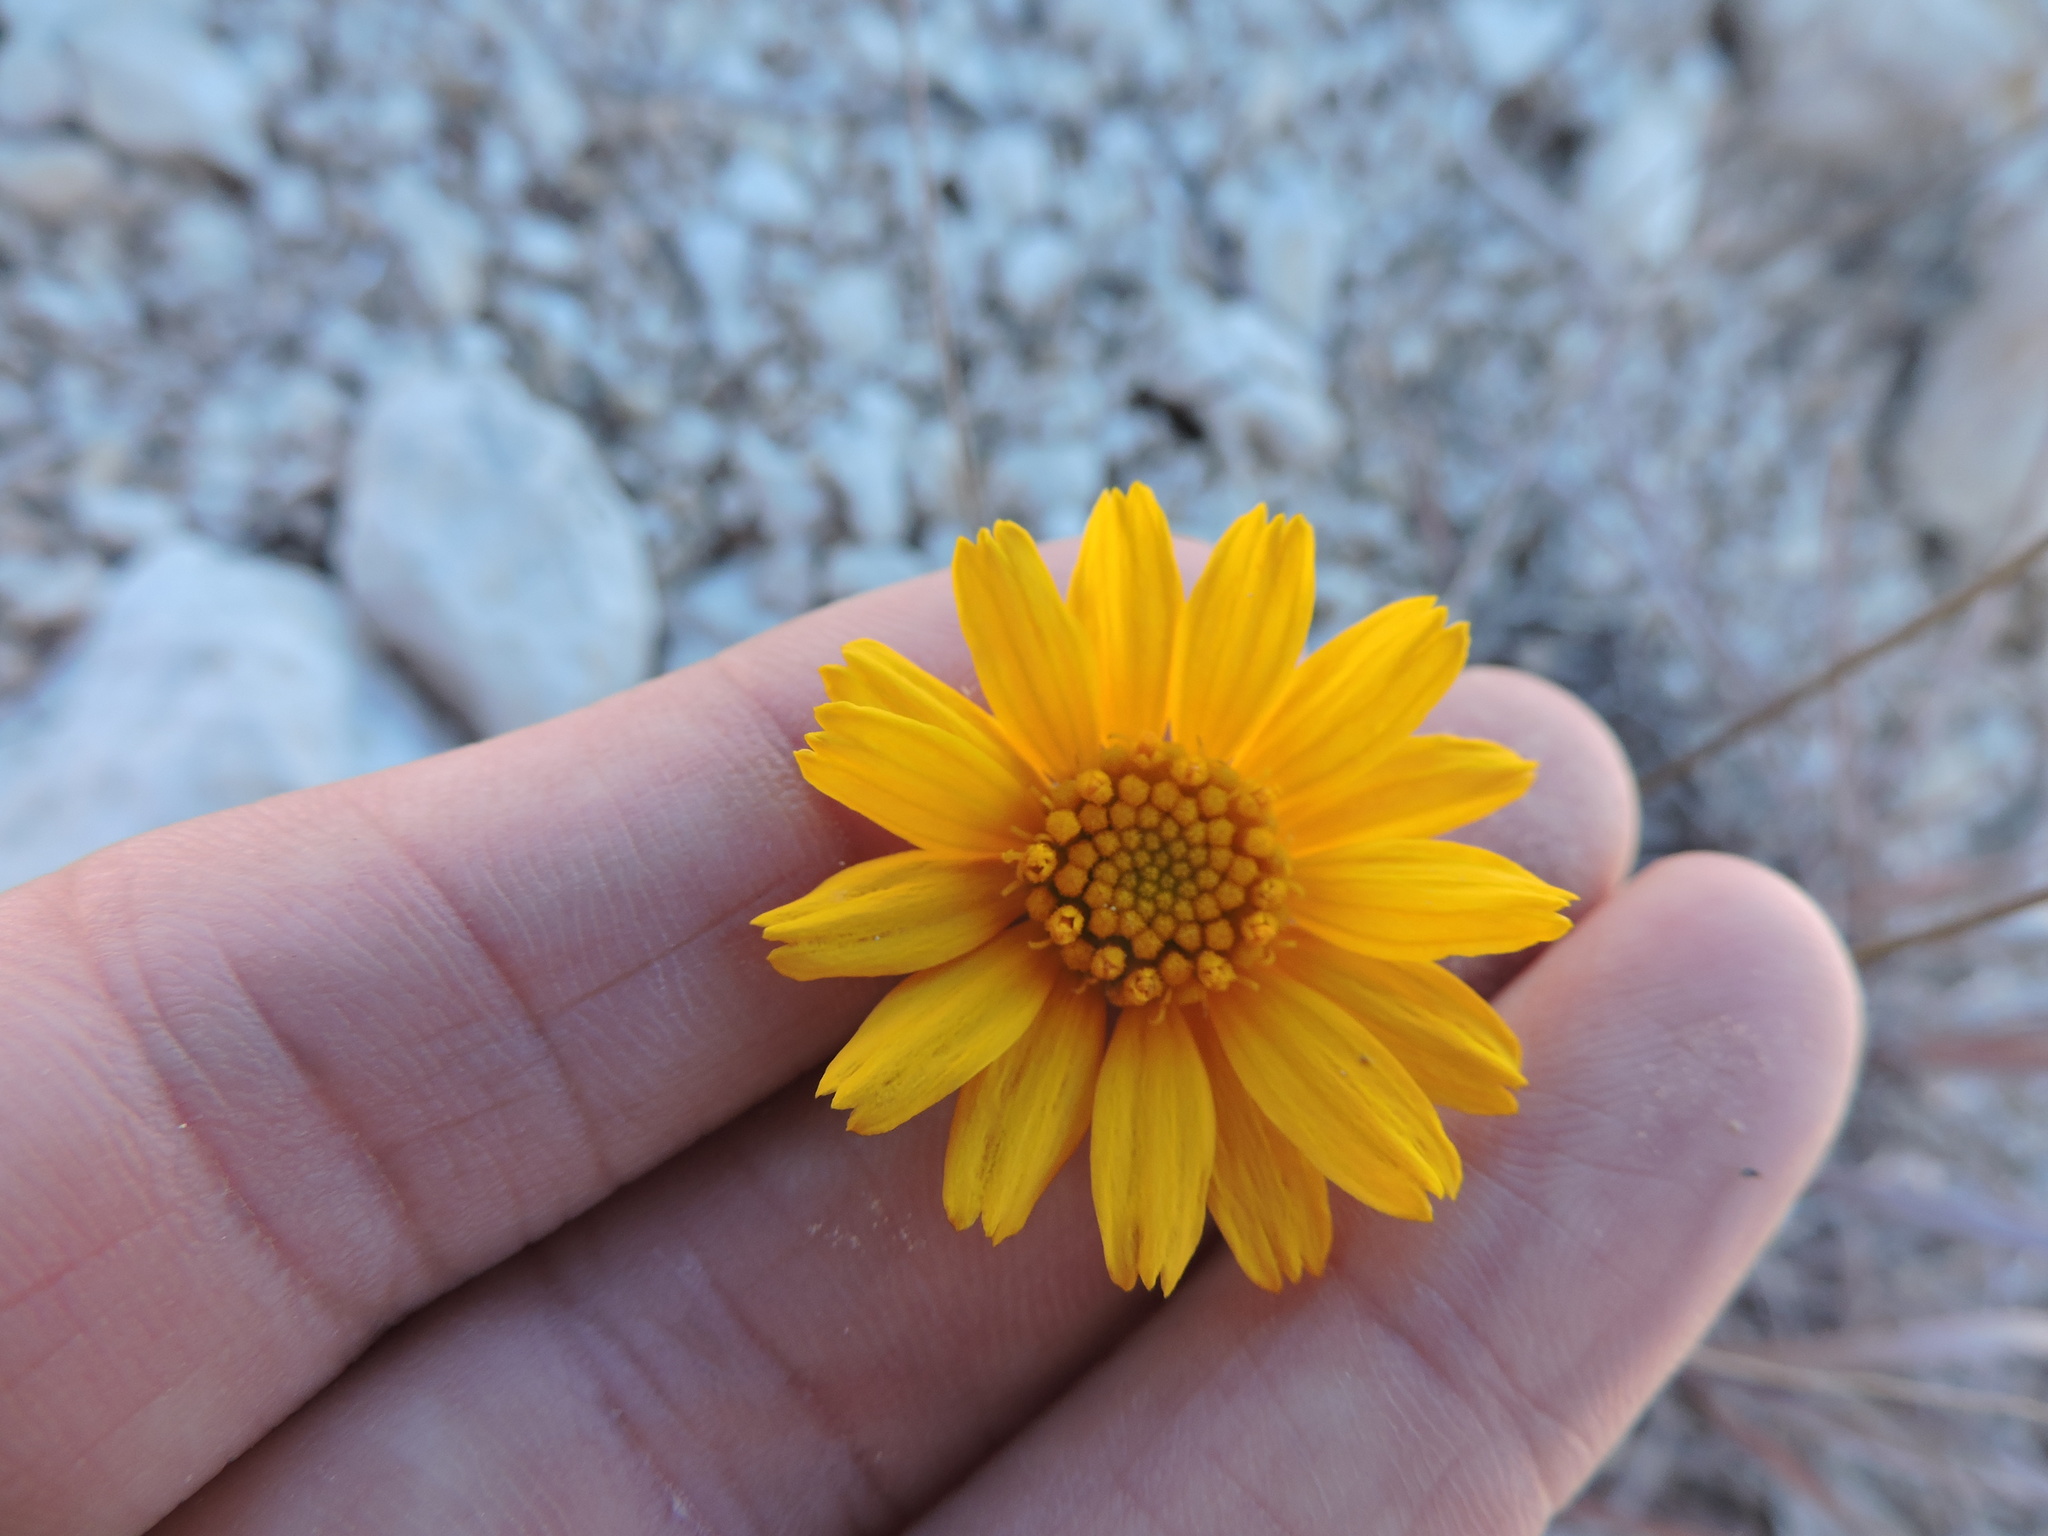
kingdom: Plantae
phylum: Tracheophyta
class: Magnoliopsida
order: Asterales
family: Asteraceae
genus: Tetraneuris
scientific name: Tetraneuris scaposa
